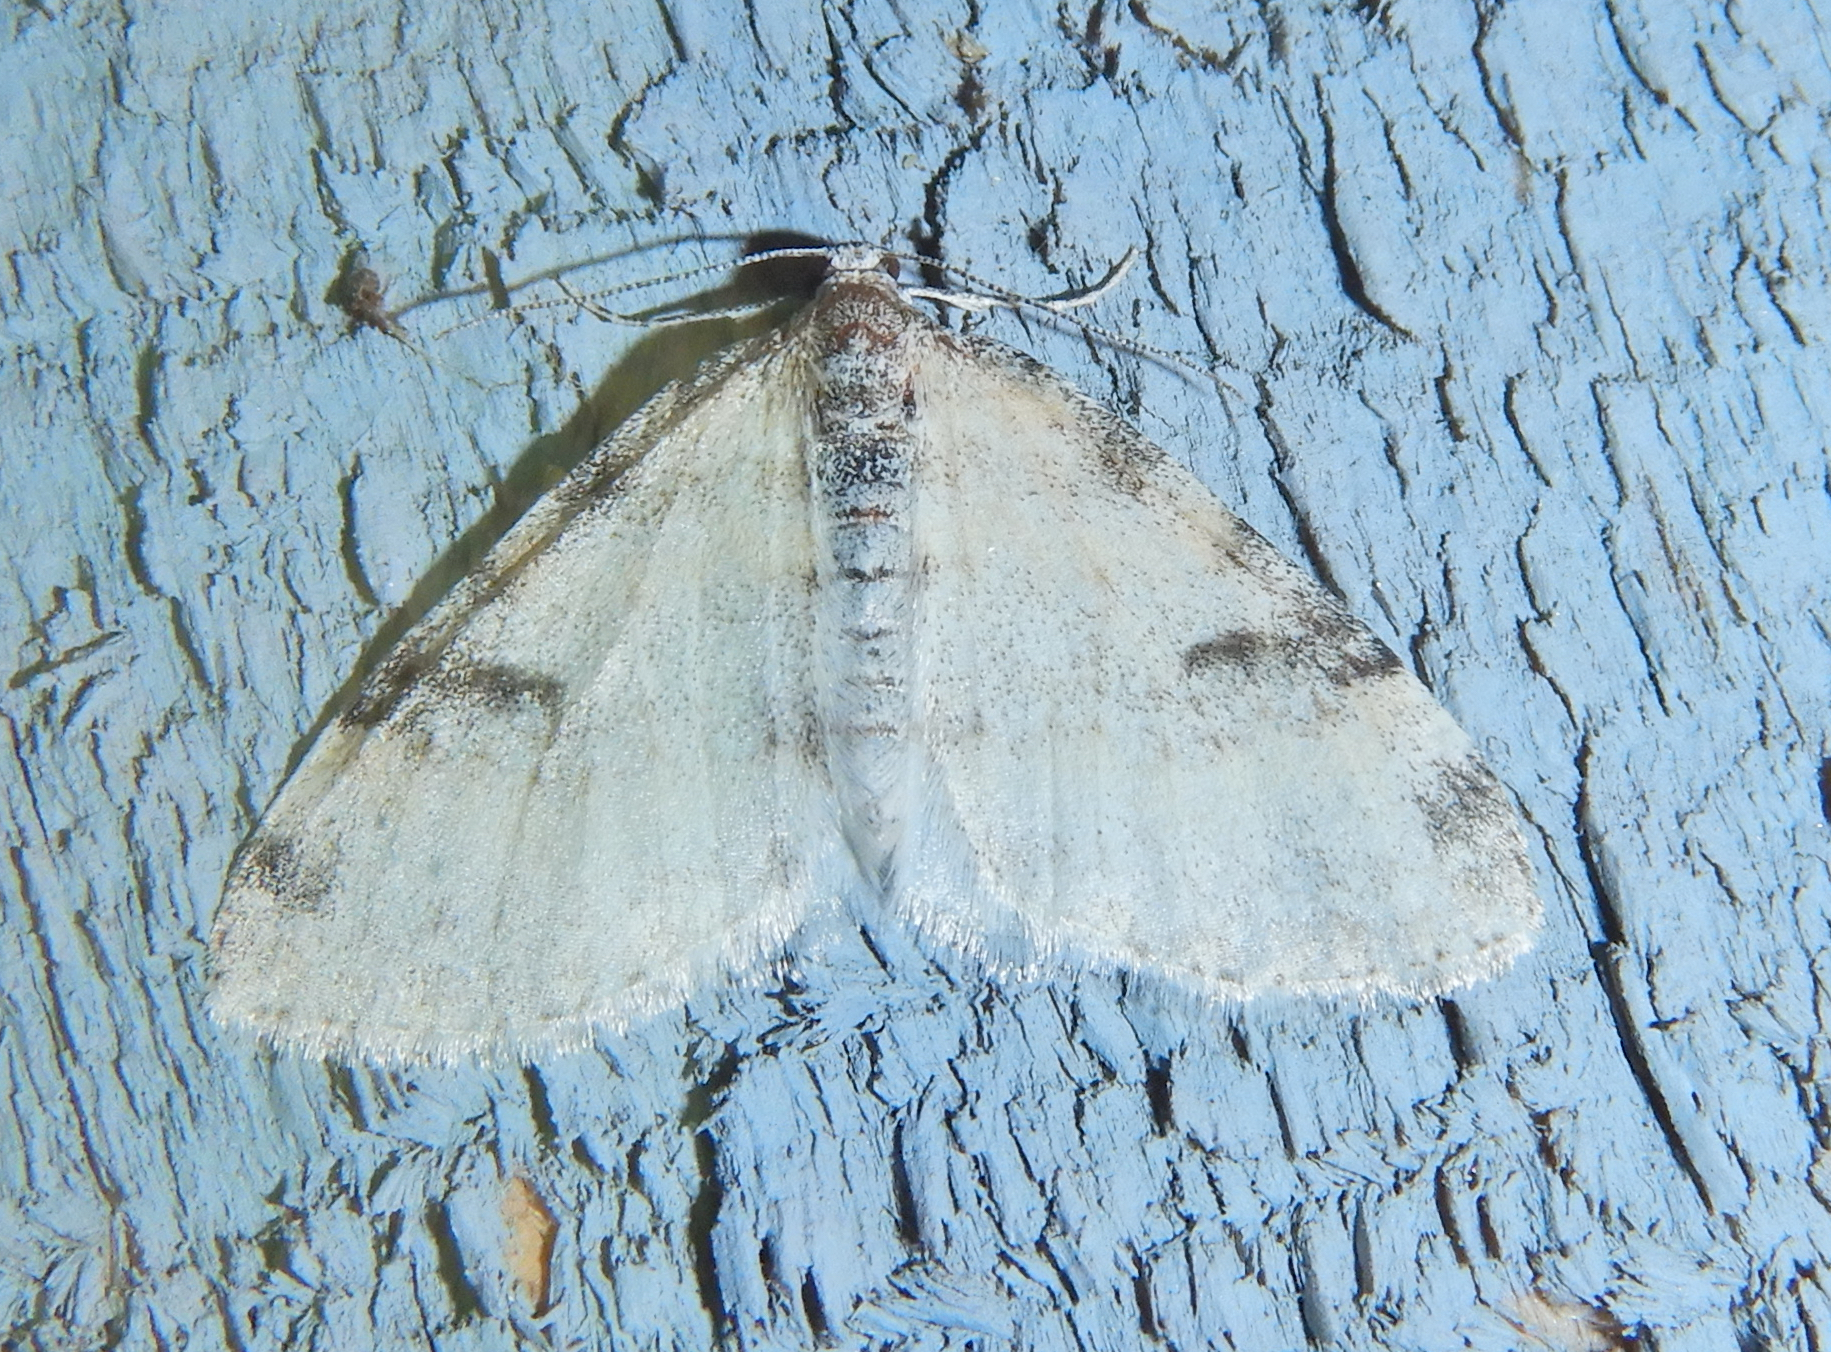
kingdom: Animalia
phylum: Arthropoda
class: Insecta
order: Lepidoptera
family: Geometridae
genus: Lobophora
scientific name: Lobophora nivigerata
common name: Powdered bigwing
